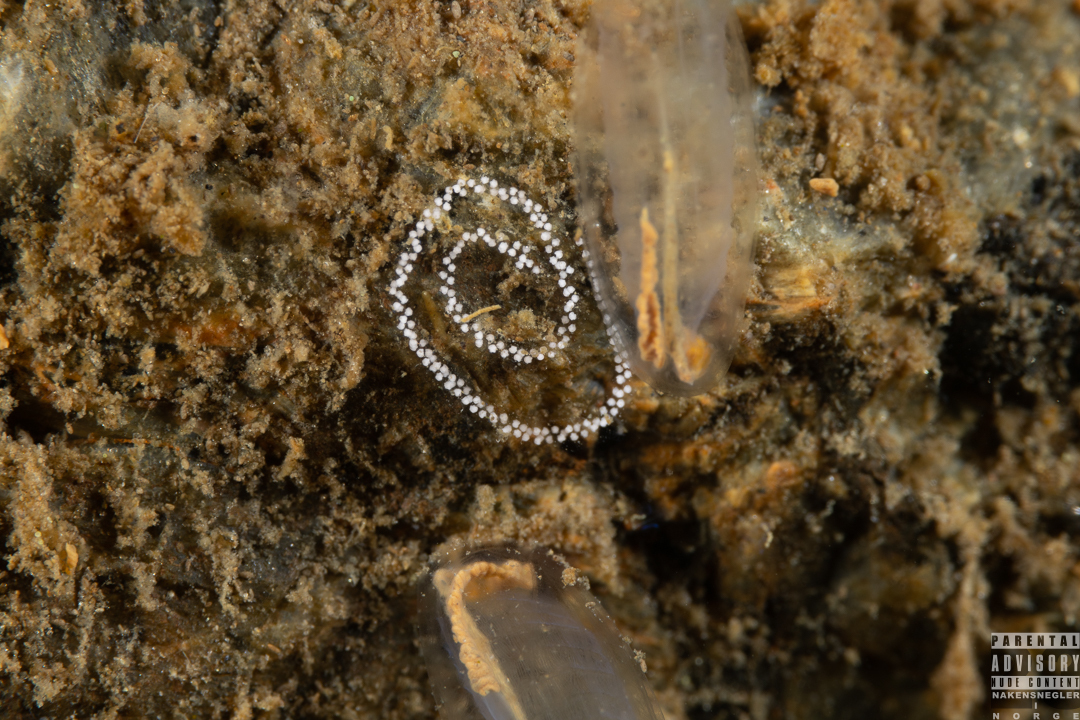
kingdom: Animalia
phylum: Mollusca
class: Gastropoda
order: Nudibranchia
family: Cuthonidae
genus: Bohuslania
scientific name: Bohuslania matsmichaeli
